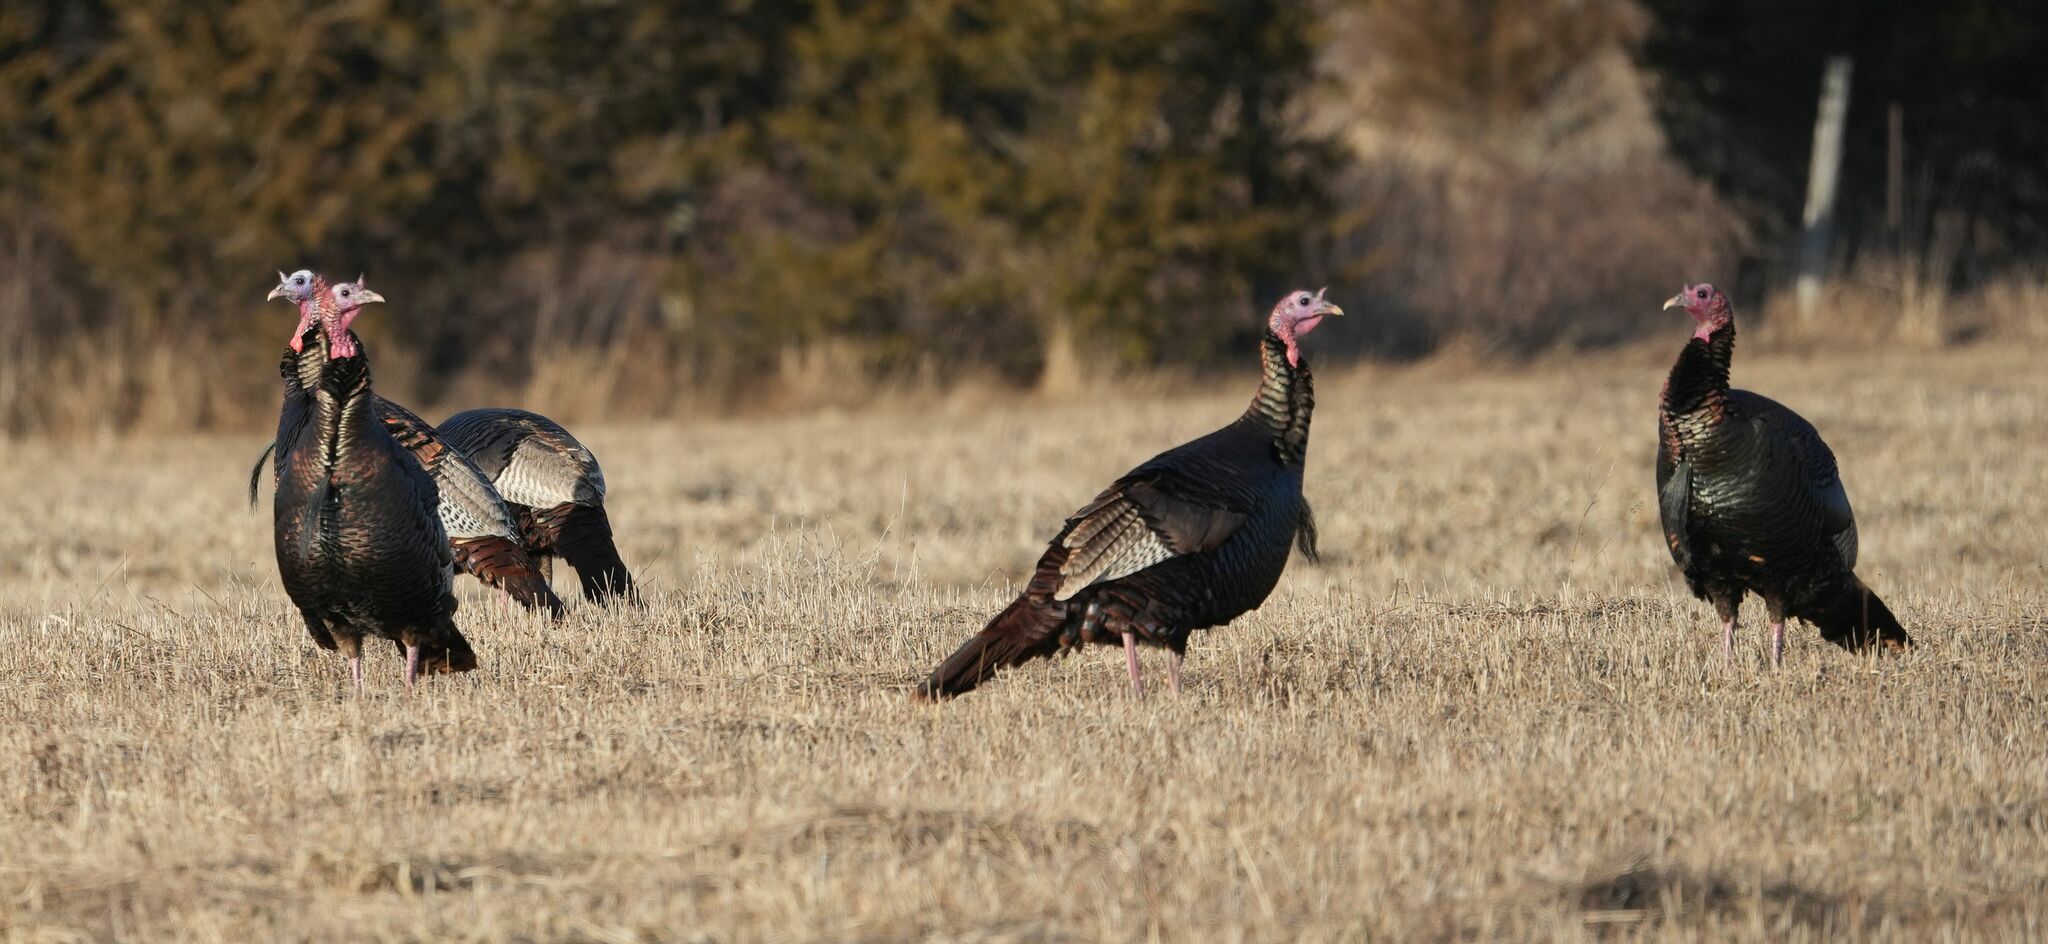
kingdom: Animalia
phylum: Chordata
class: Aves
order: Galliformes
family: Phasianidae
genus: Meleagris
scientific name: Meleagris gallopavo
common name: Wild turkey
